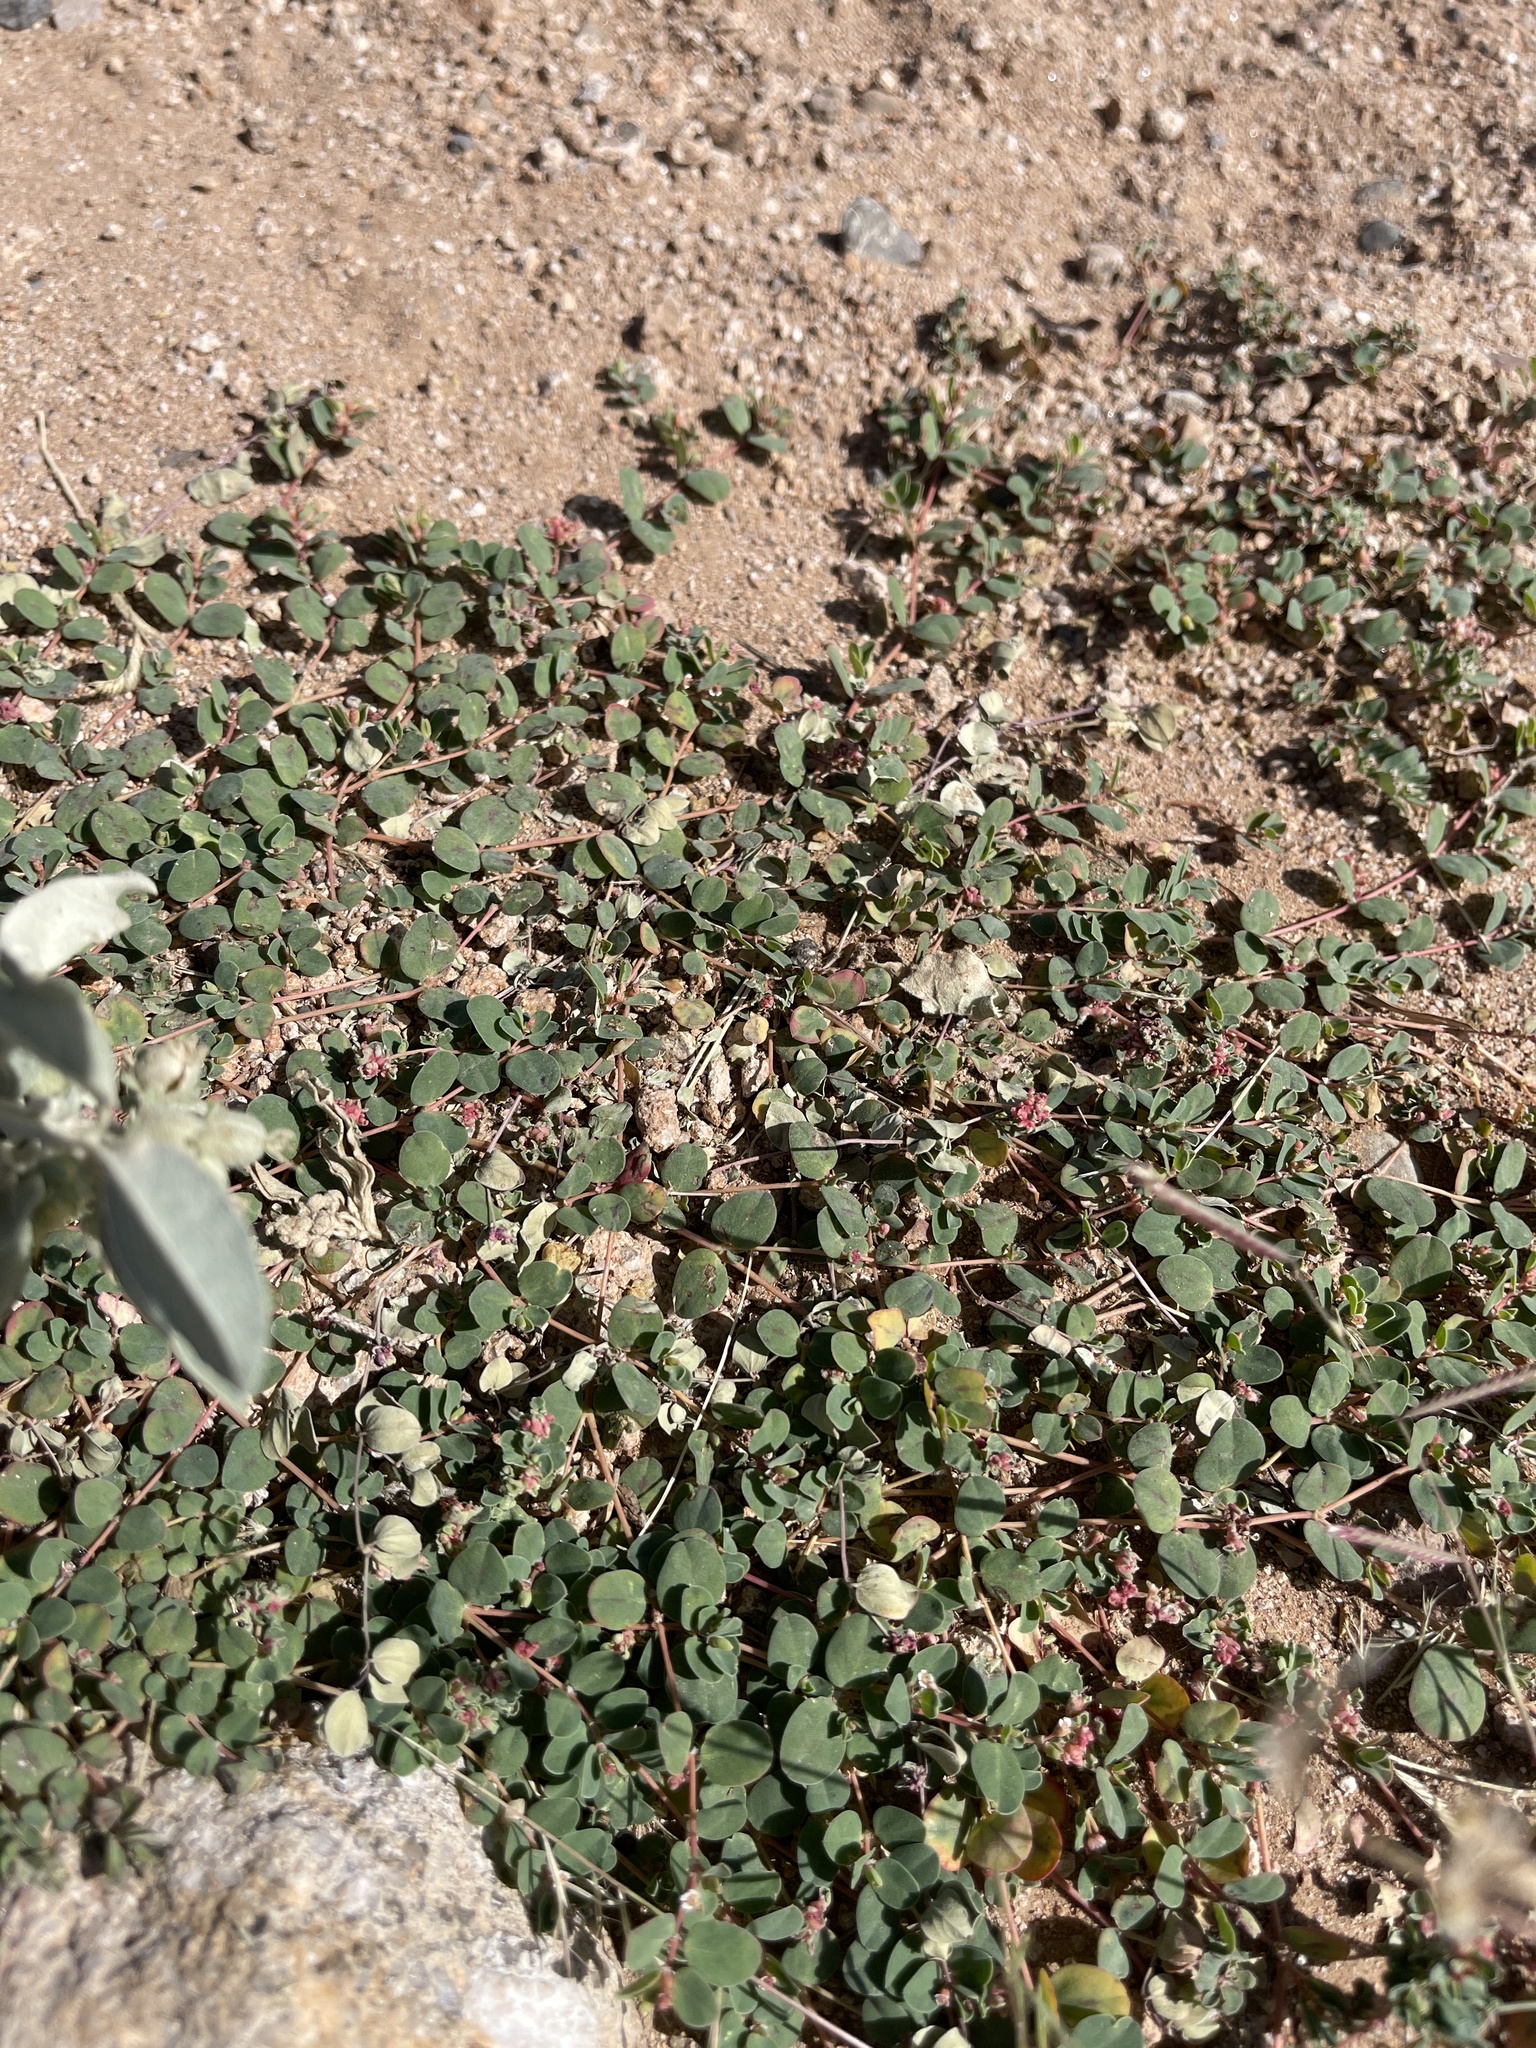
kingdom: Plantae
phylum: Tracheophyta
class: Magnoliopsida
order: Malpighiales
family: Euphorbiaceae
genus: Euphorbia
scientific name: Euphorbia albomarginata
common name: Whitemargin sandmat
